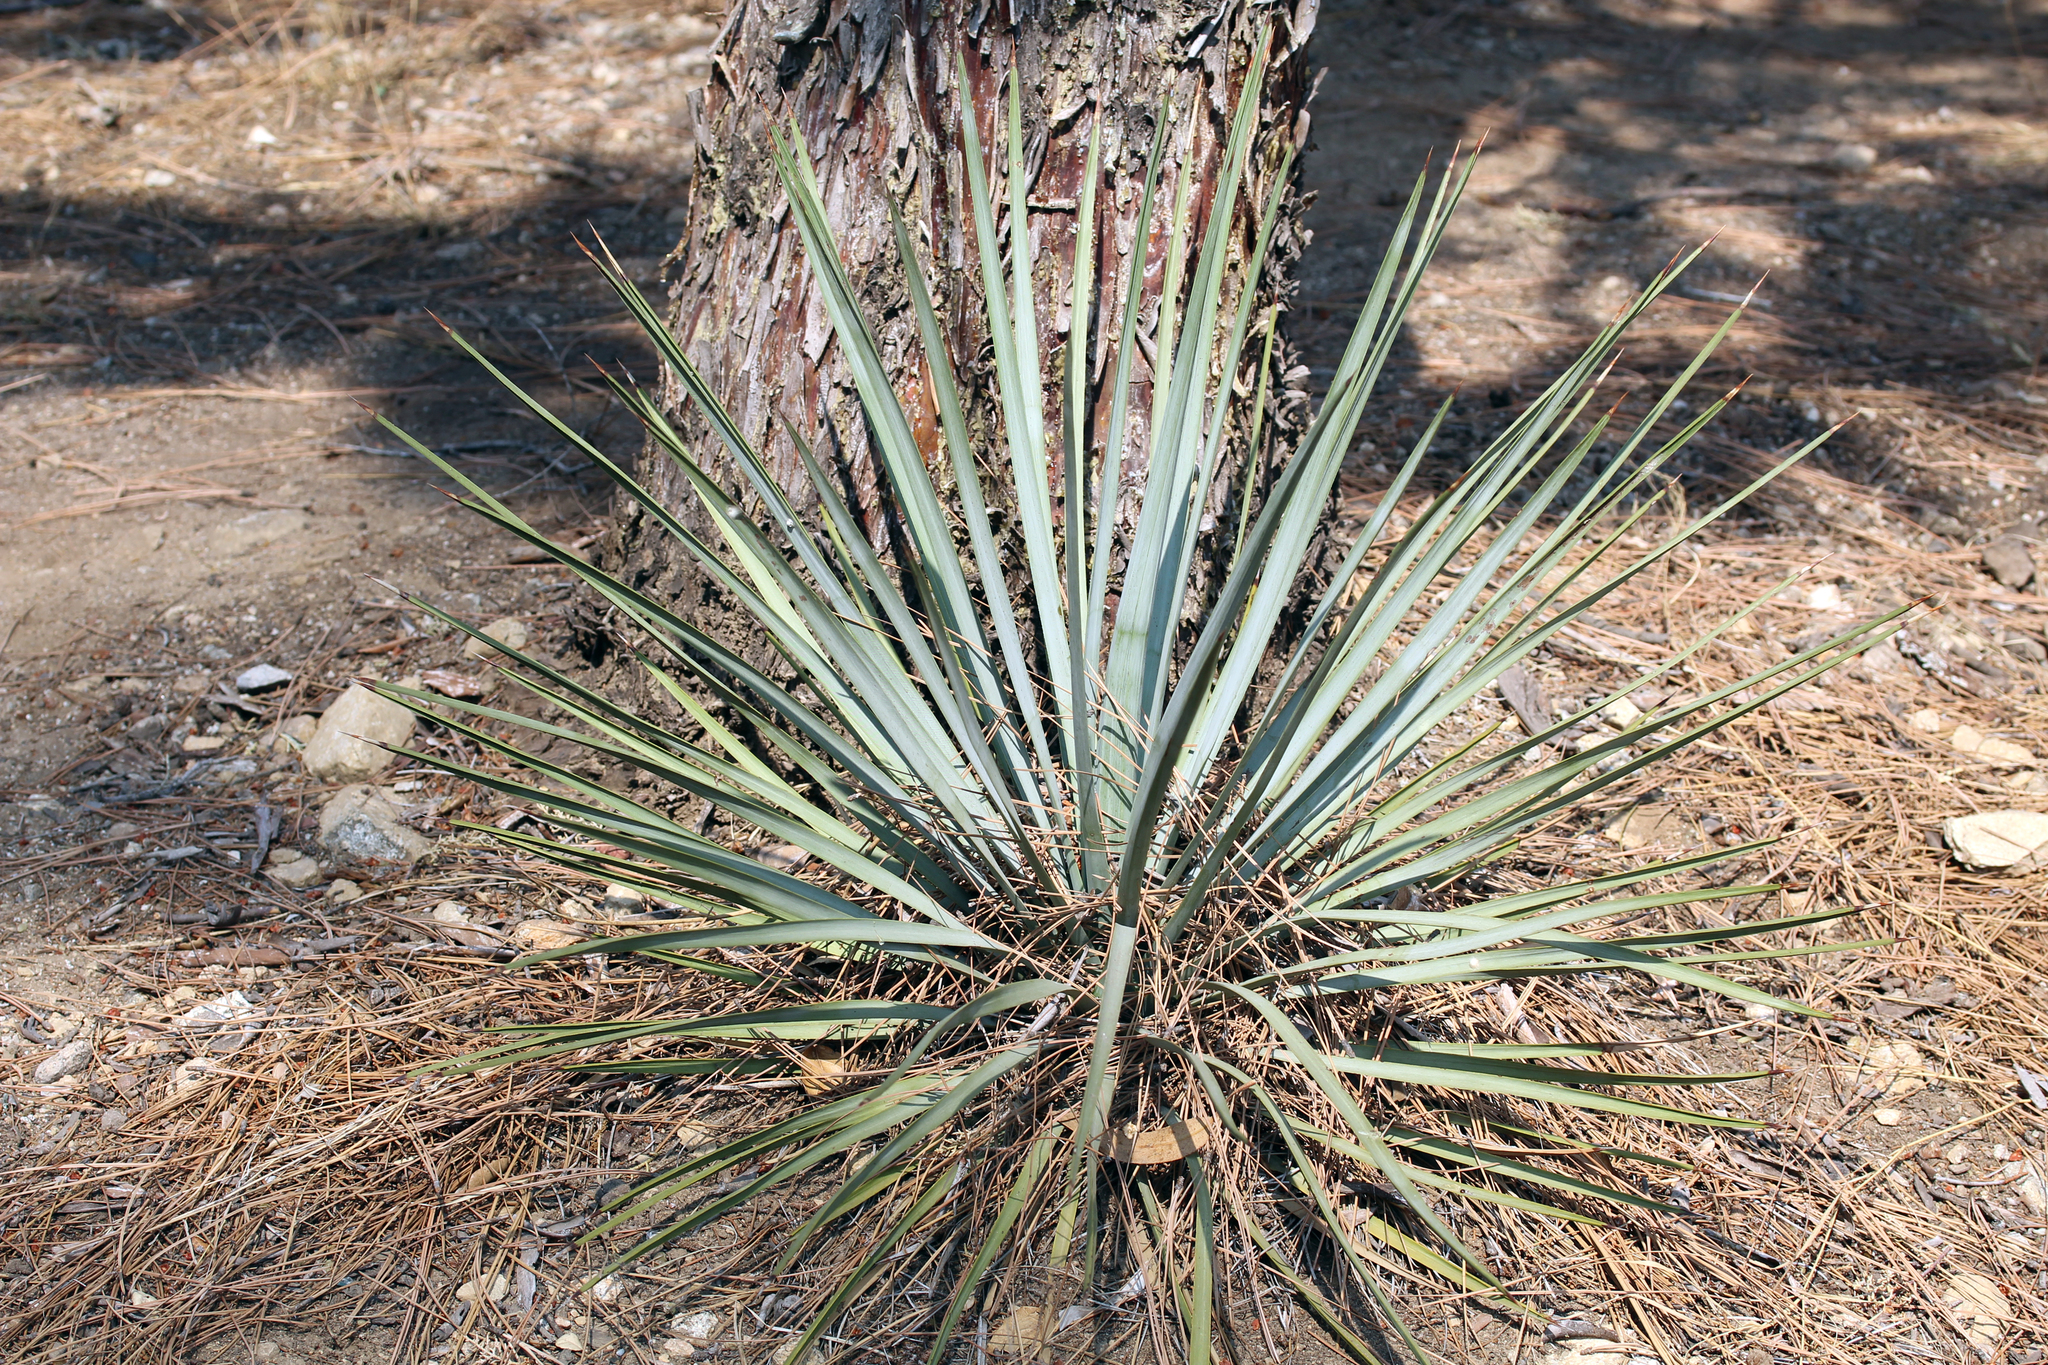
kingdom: Plantae
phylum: Tracheophyta
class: Liliopsida
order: Asparagales
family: Asparagaceae
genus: Hesperoyucca
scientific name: Hesperoyucca whipplei
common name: Our lord's-candle
